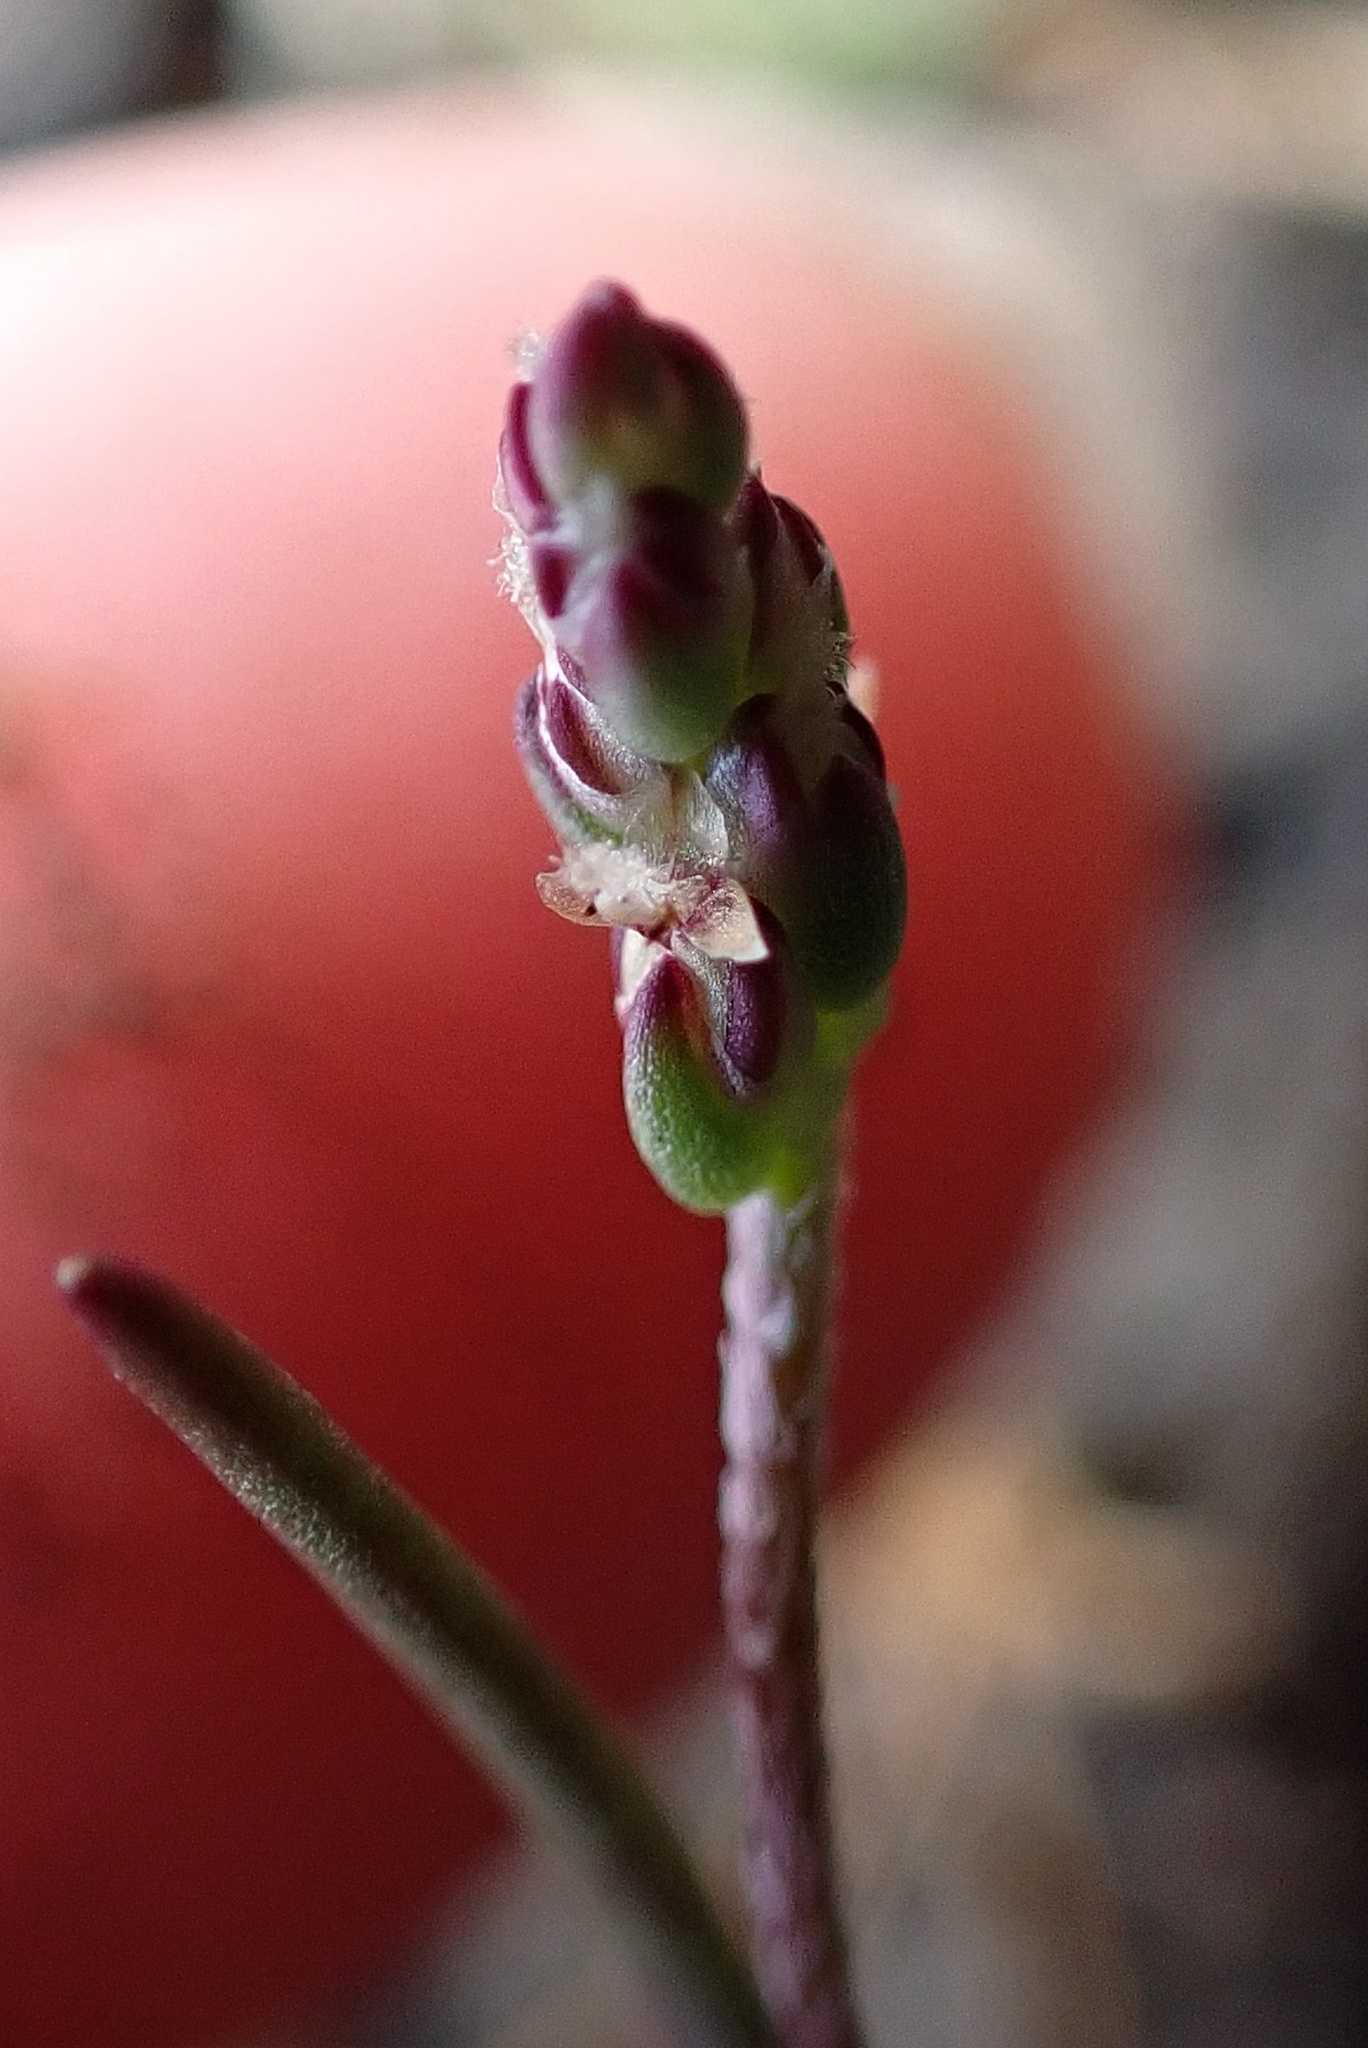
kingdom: Plantae
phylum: Tracheophyta
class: Magnoliopsida
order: Lamiales
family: Plantaginaceae
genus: Plantago
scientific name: Plantago elongata
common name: Linear-leaved plantain
